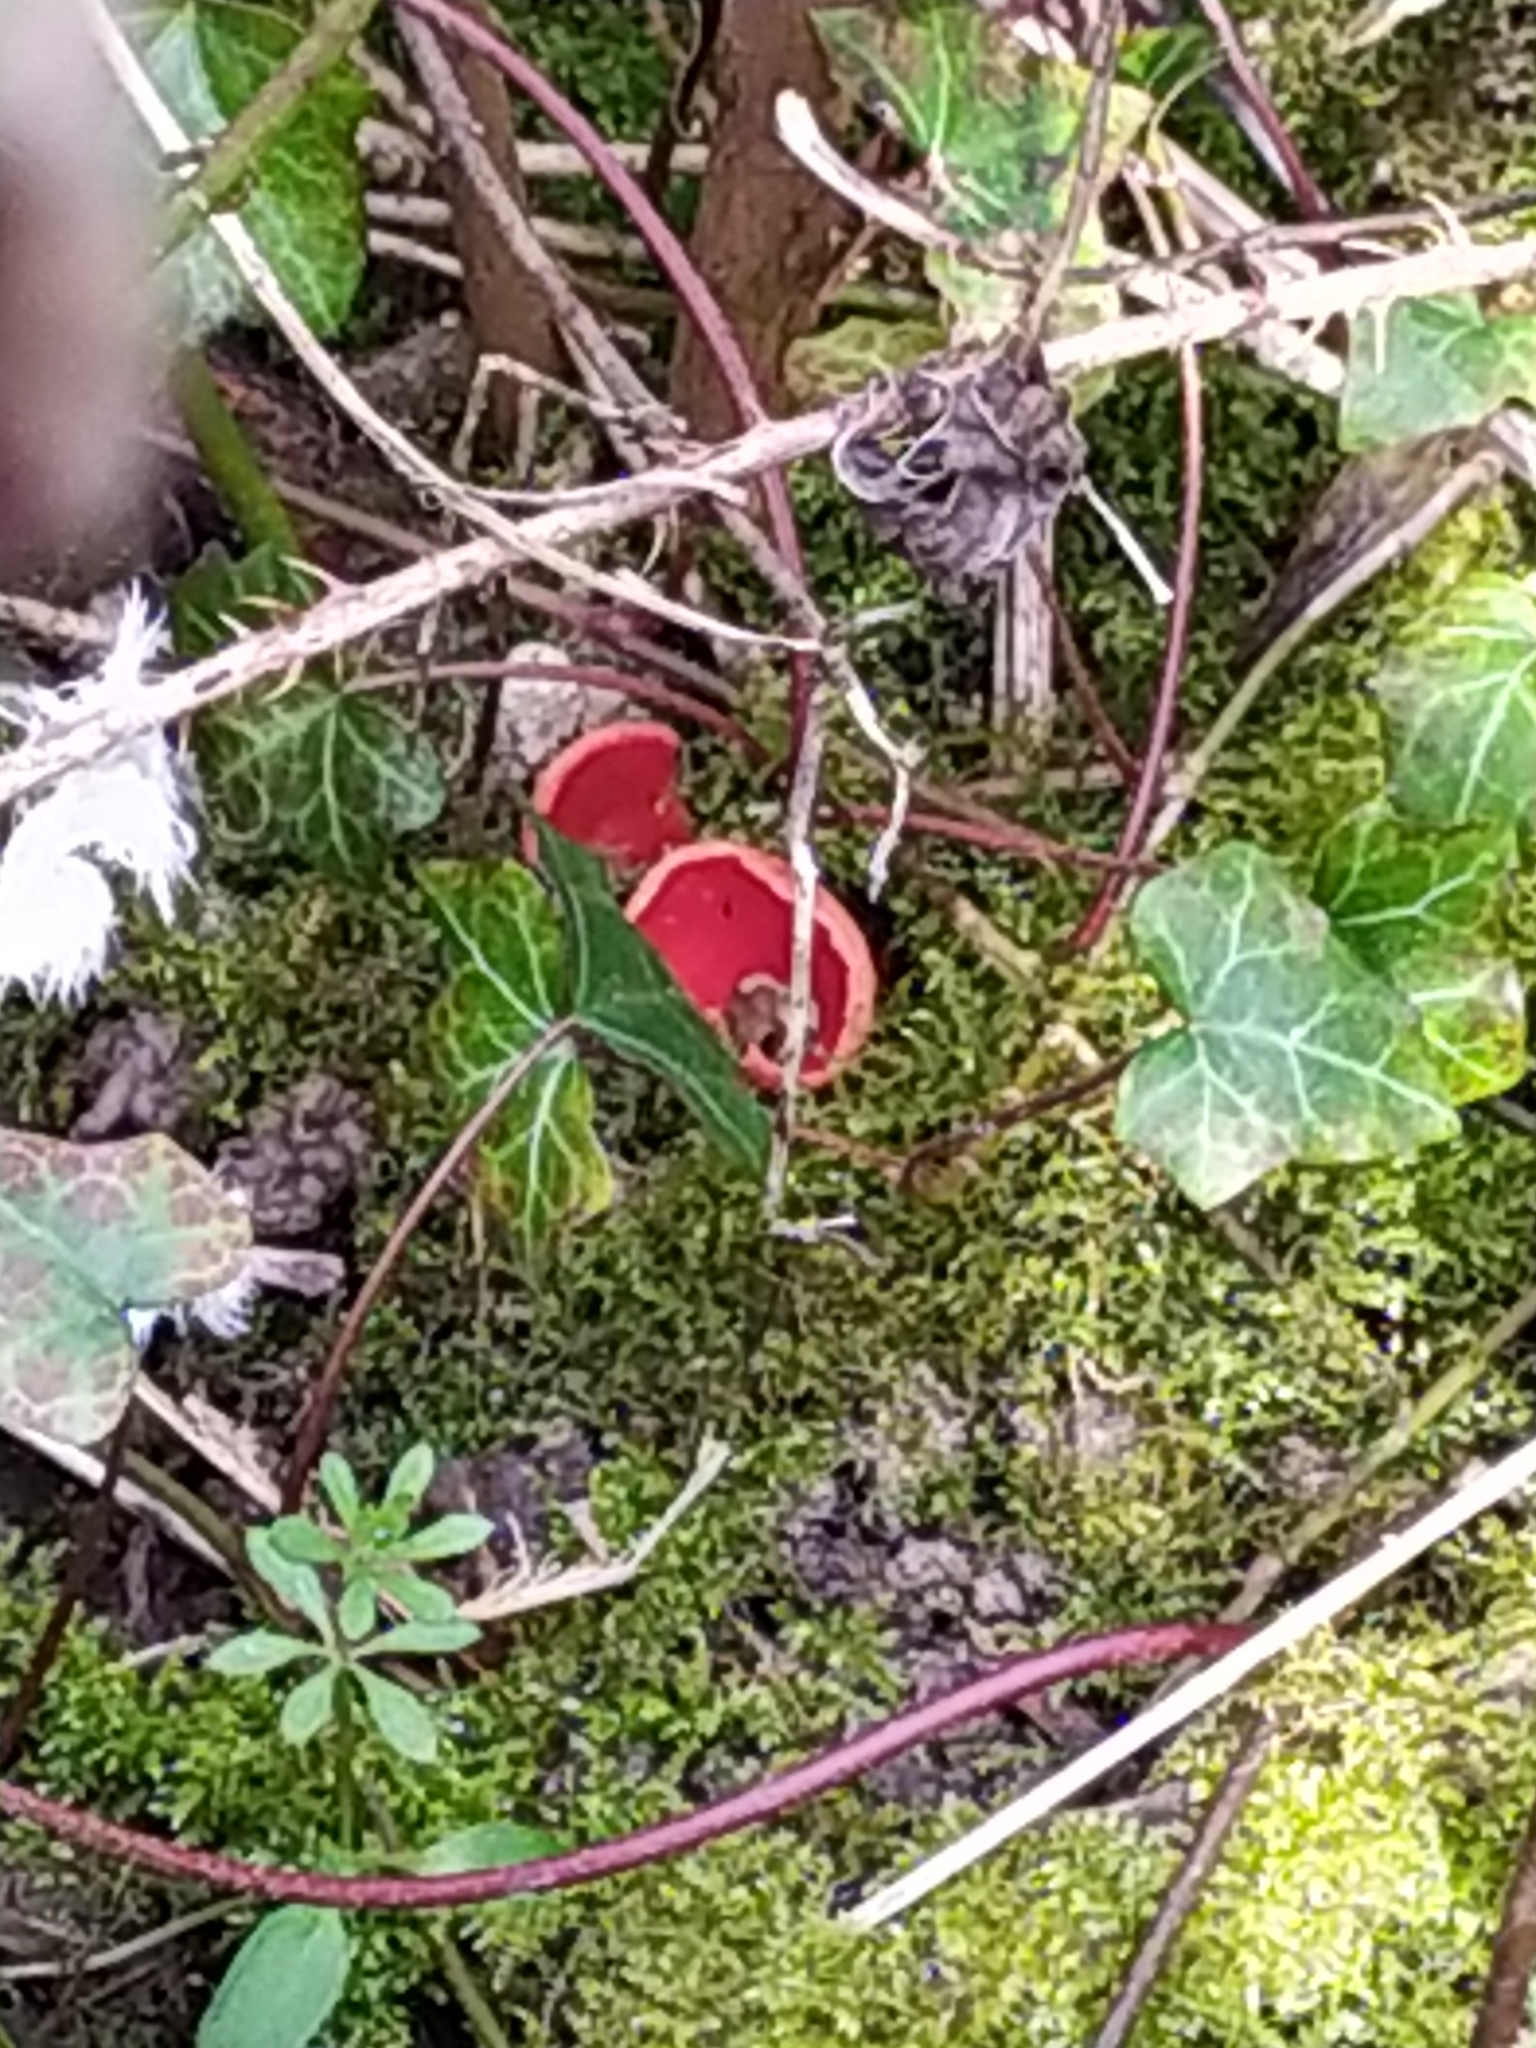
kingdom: Fungi
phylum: Ascomycota
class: Pezizomycetes
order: Pezizales
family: Sarcoscyphaceae
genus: Sarcoscypha
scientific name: Sarcoscypha
